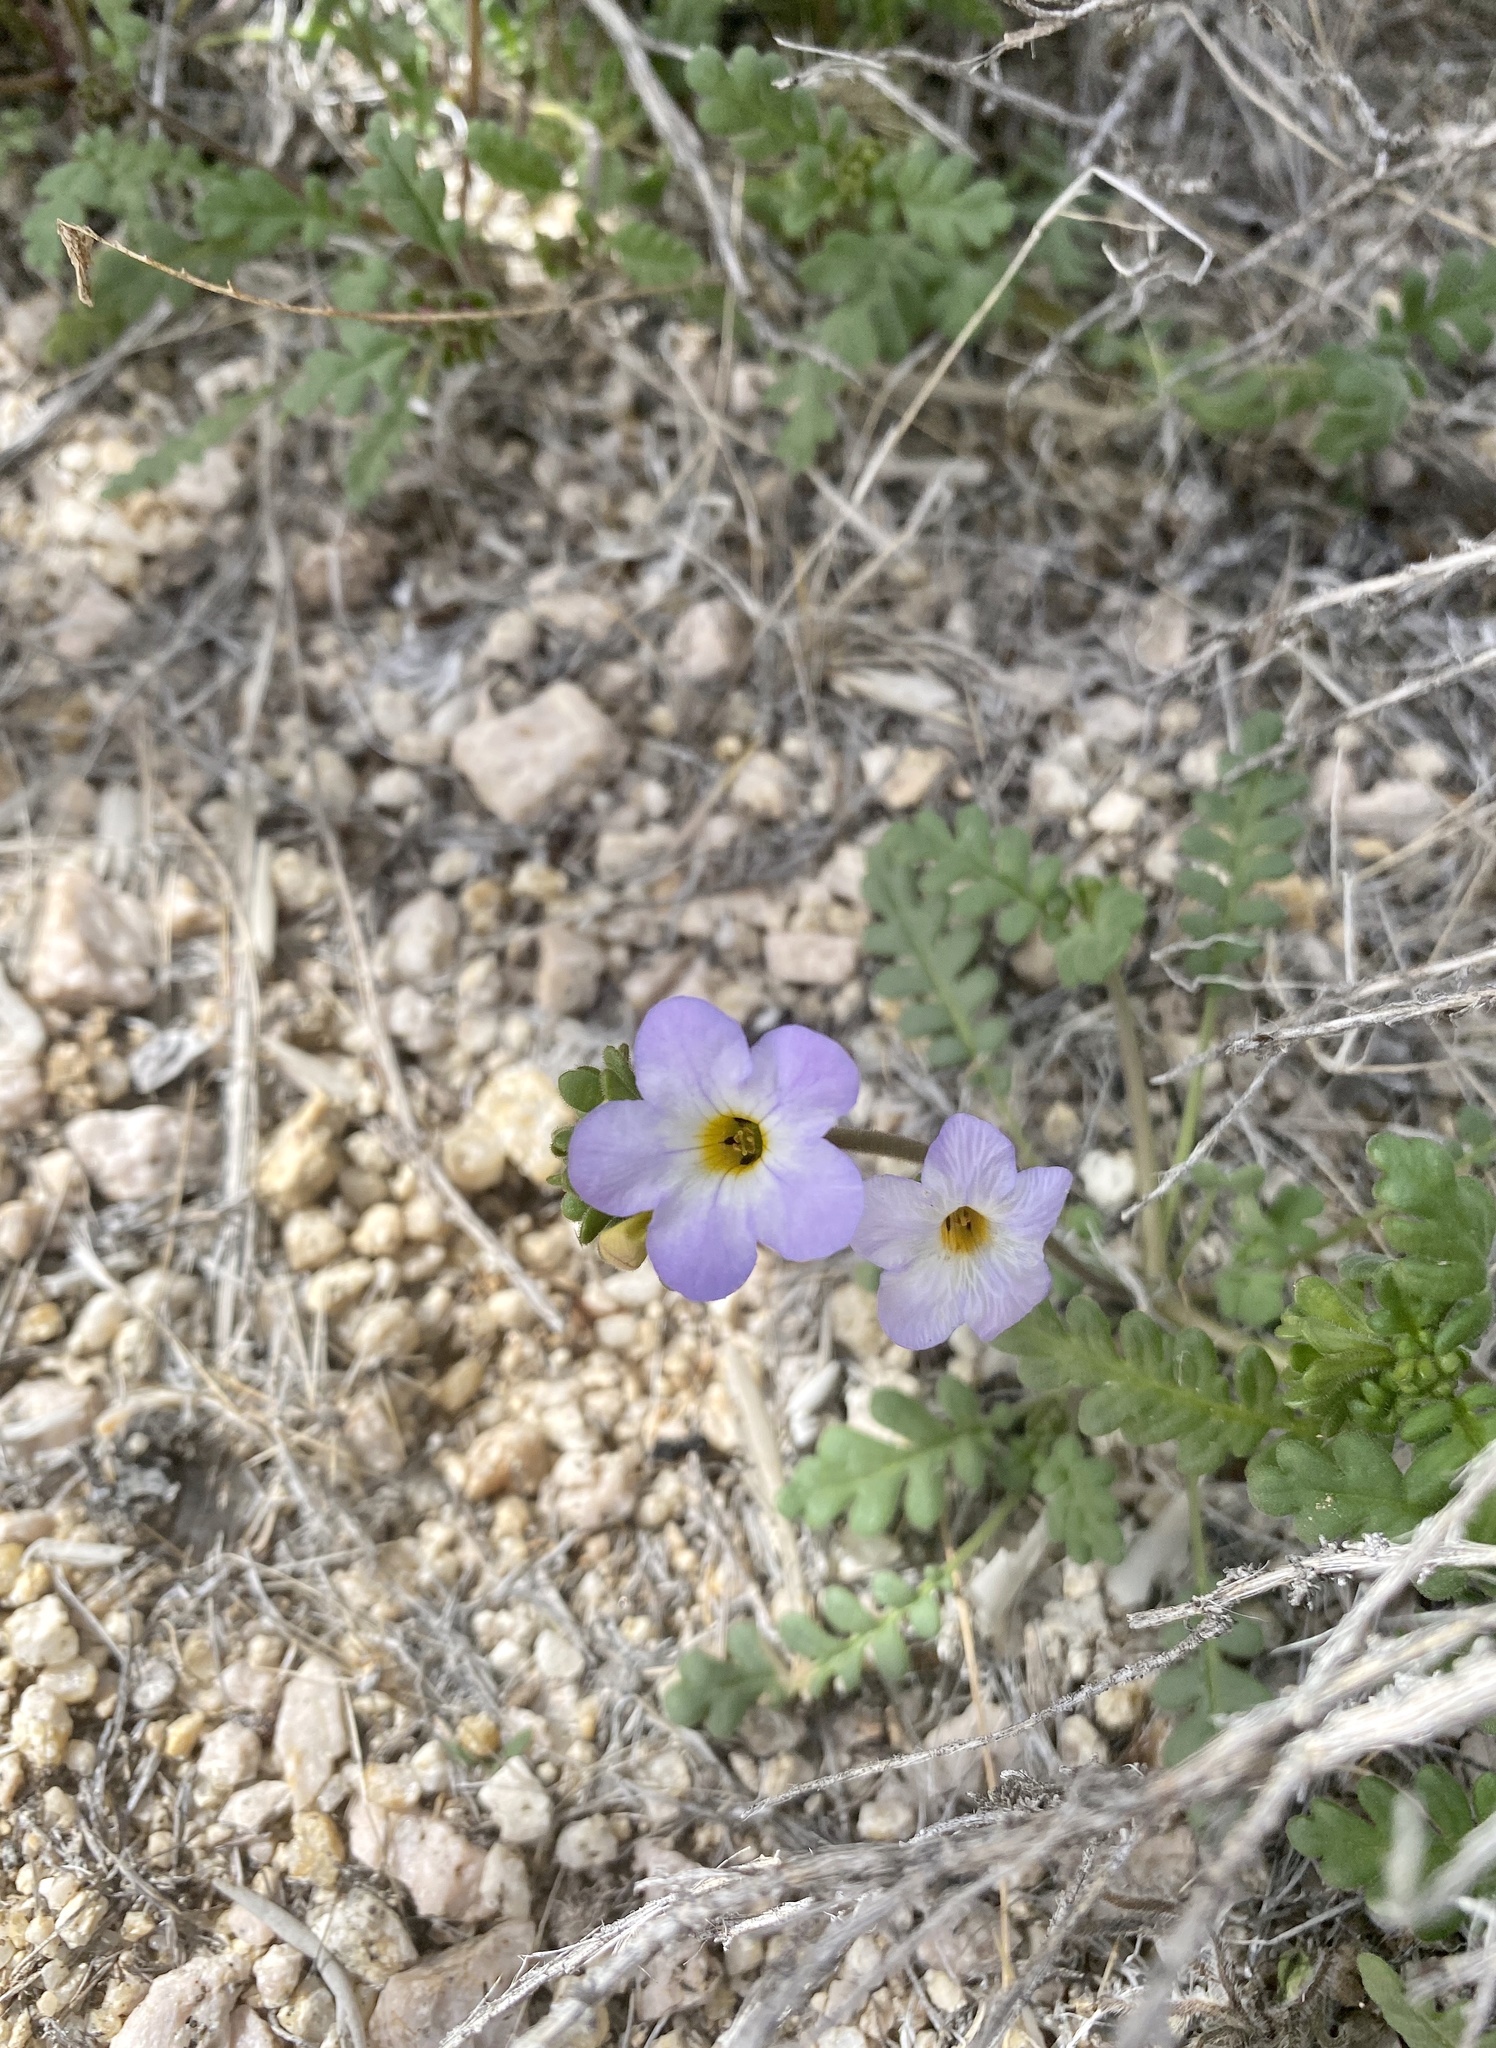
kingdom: Plantae
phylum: Tracheophyta
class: Magnoliopsida
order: Boraginales
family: Hydrophyllaceae
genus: Phacelia
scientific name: Phacelia fremontii
